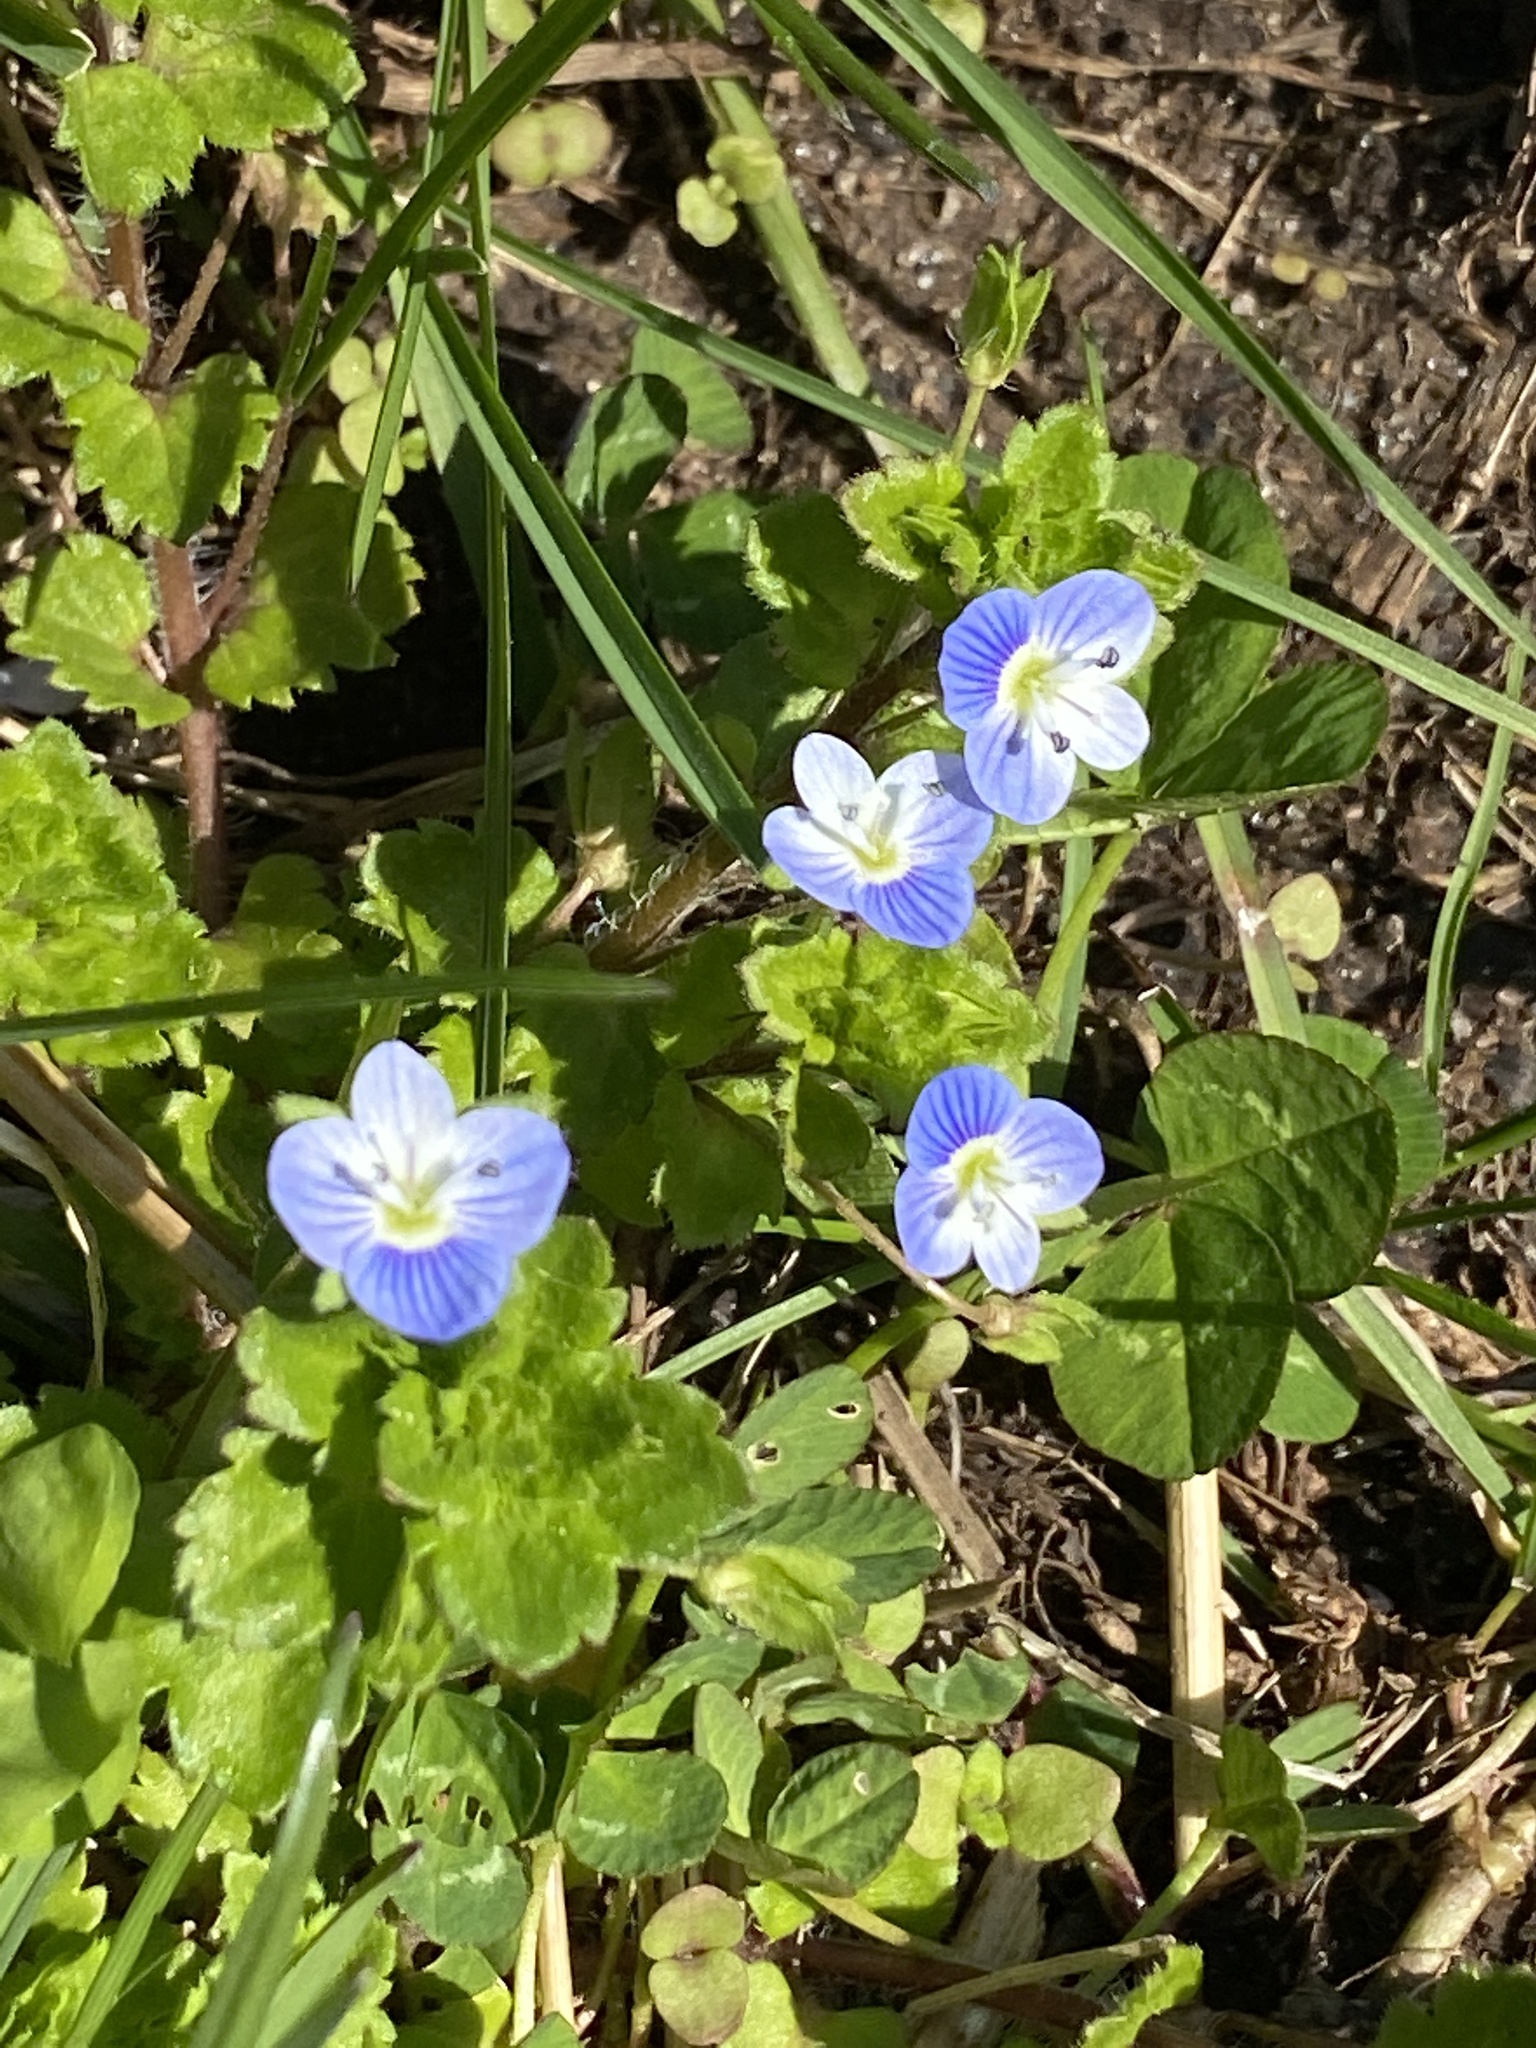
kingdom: Plantae
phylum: Tracheophyta
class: Magnoliopsida
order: Lamiales
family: Plantaginaceae
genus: Veronica
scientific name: Veronica persica
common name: Common field-speedwell
